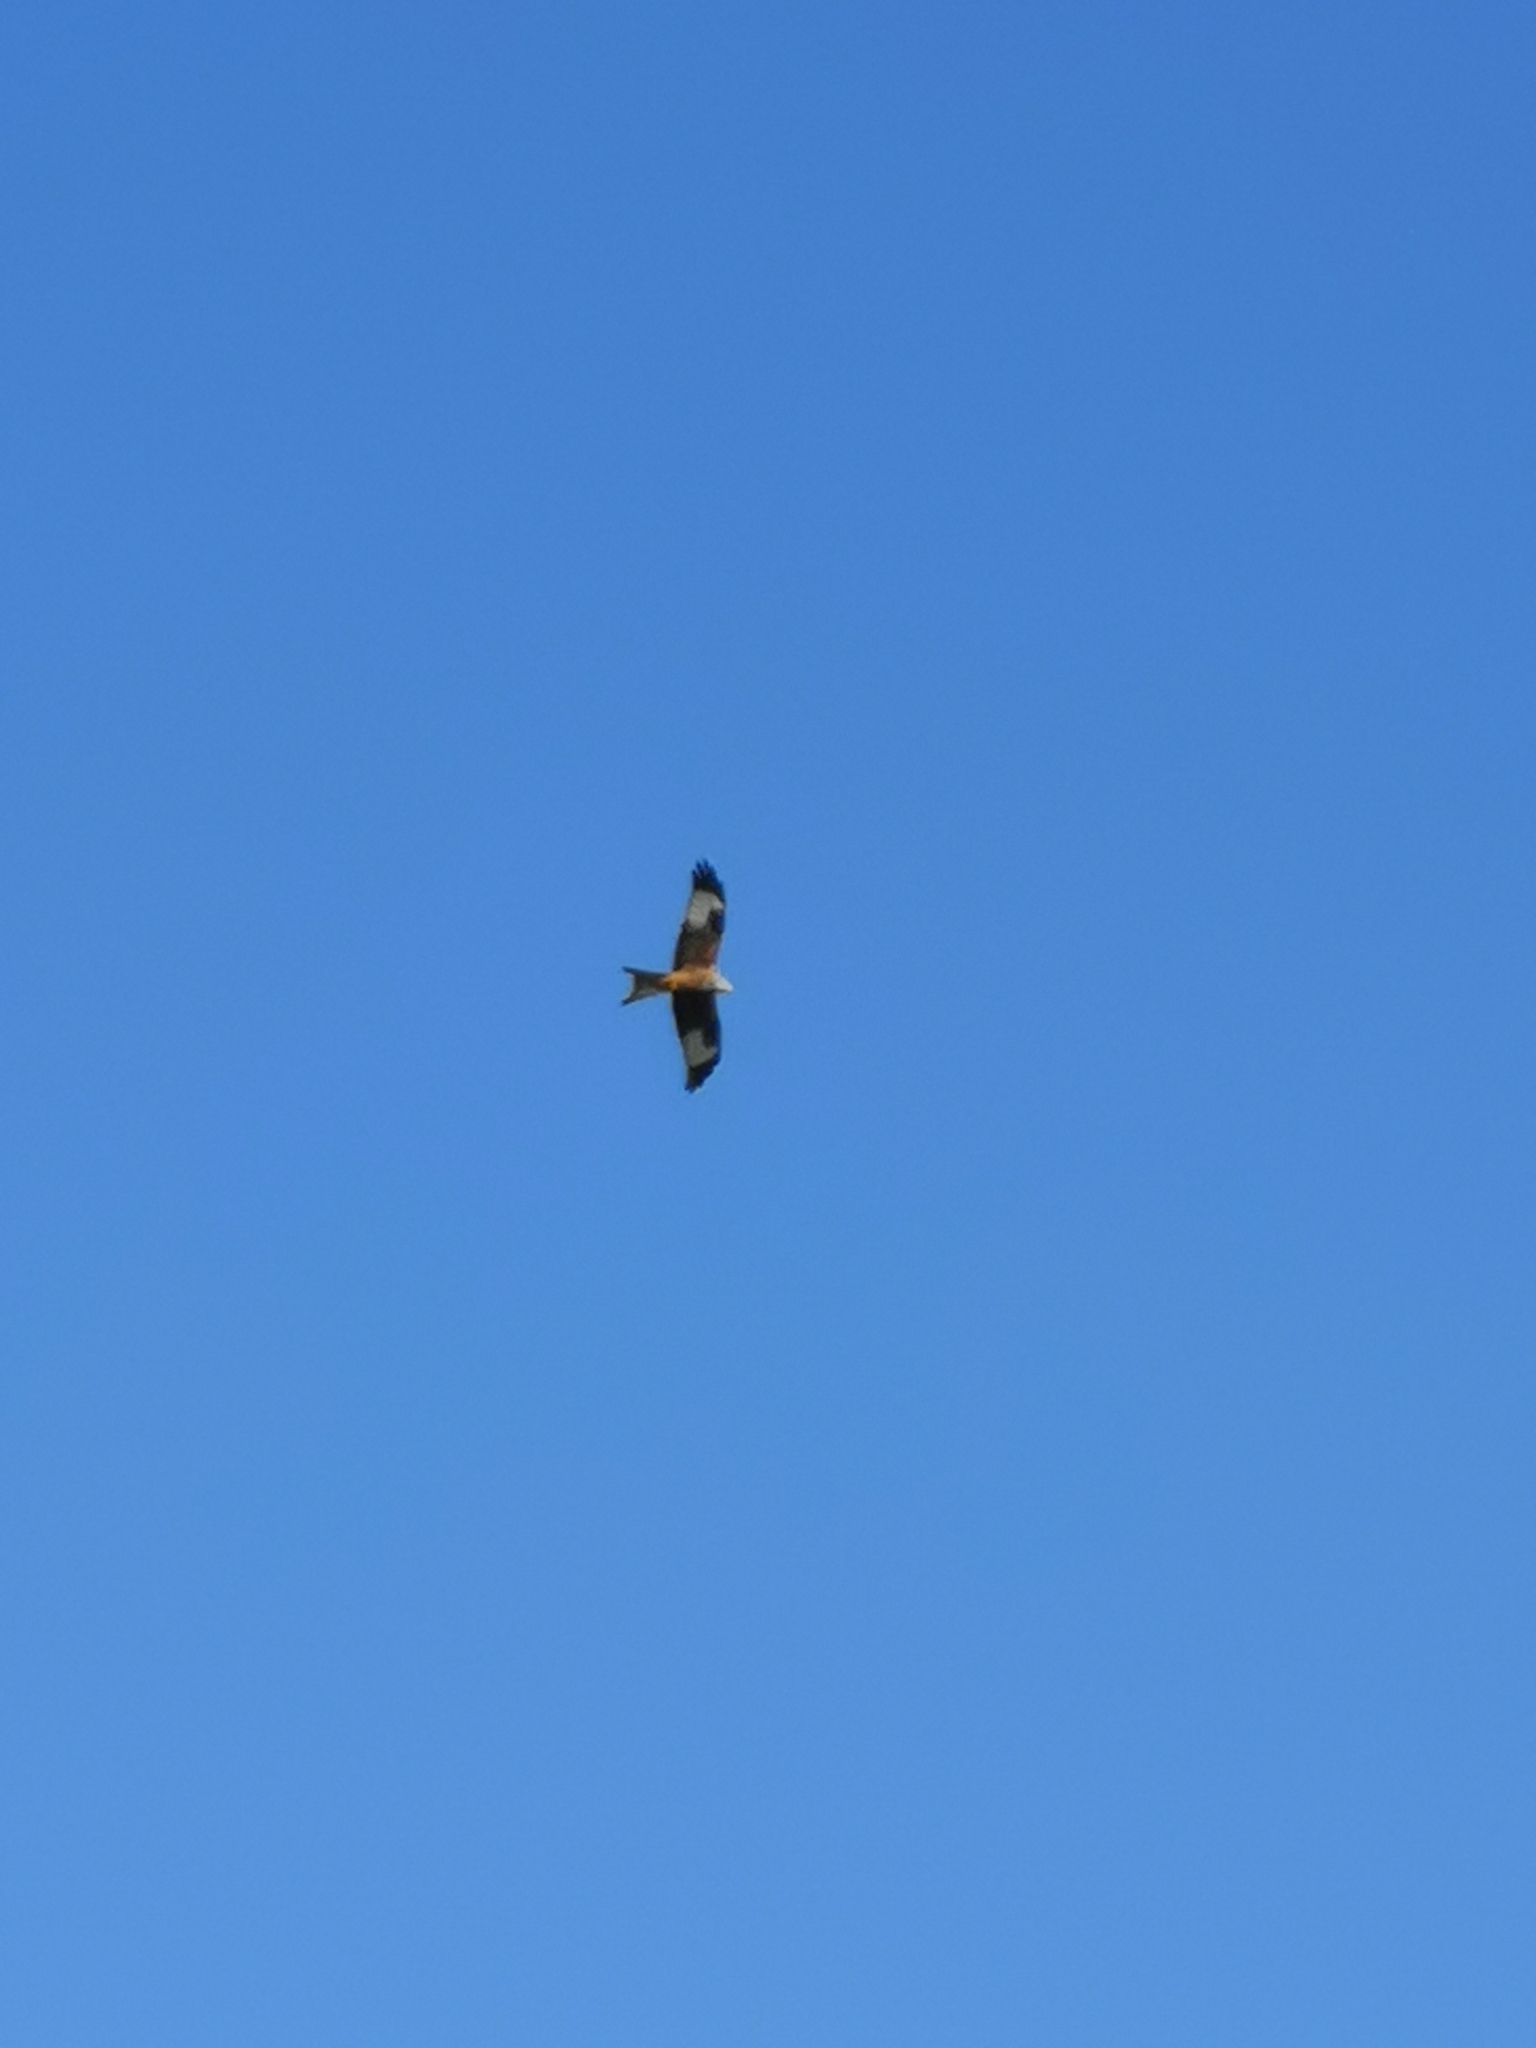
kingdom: Animalia
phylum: Chordata
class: Aves
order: Accipitriformes
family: Accipitridae
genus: Milvus
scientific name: Milvus milvus
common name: Red kite
